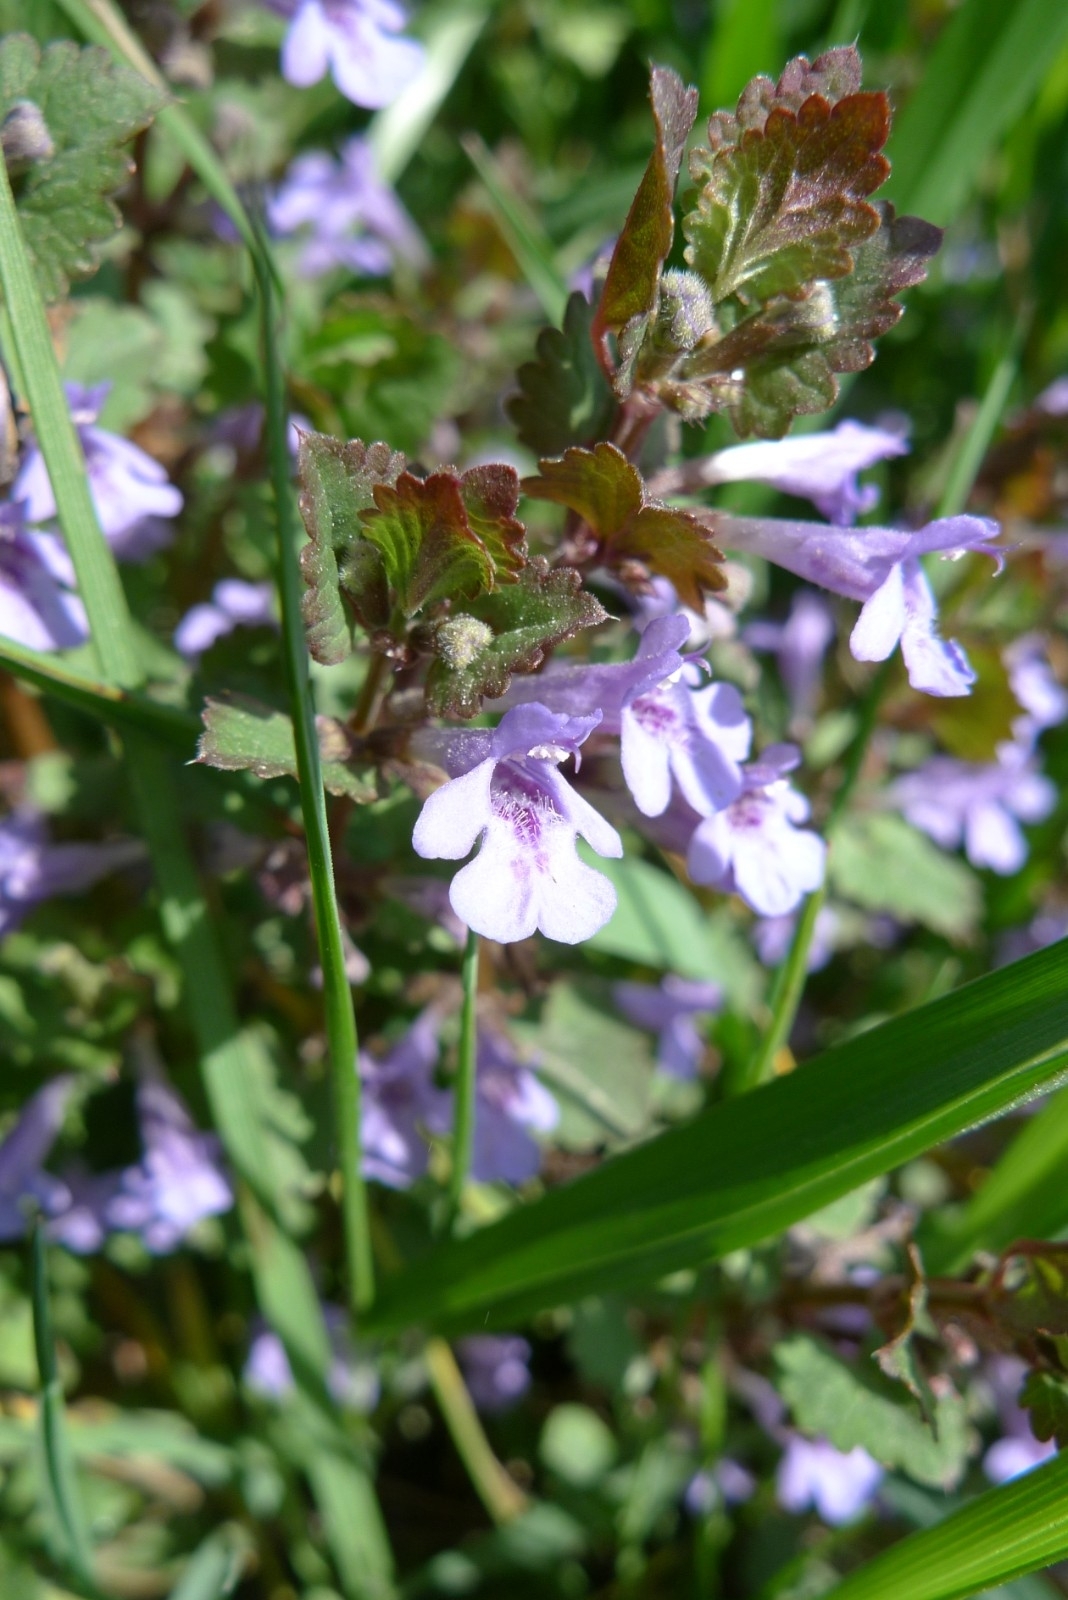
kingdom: Plantae
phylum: Tracheophyta
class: Magnoliopsida
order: Lamiales
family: Lamiaceae
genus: Glechoma
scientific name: Glechoma hederacea
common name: Ground ivy
